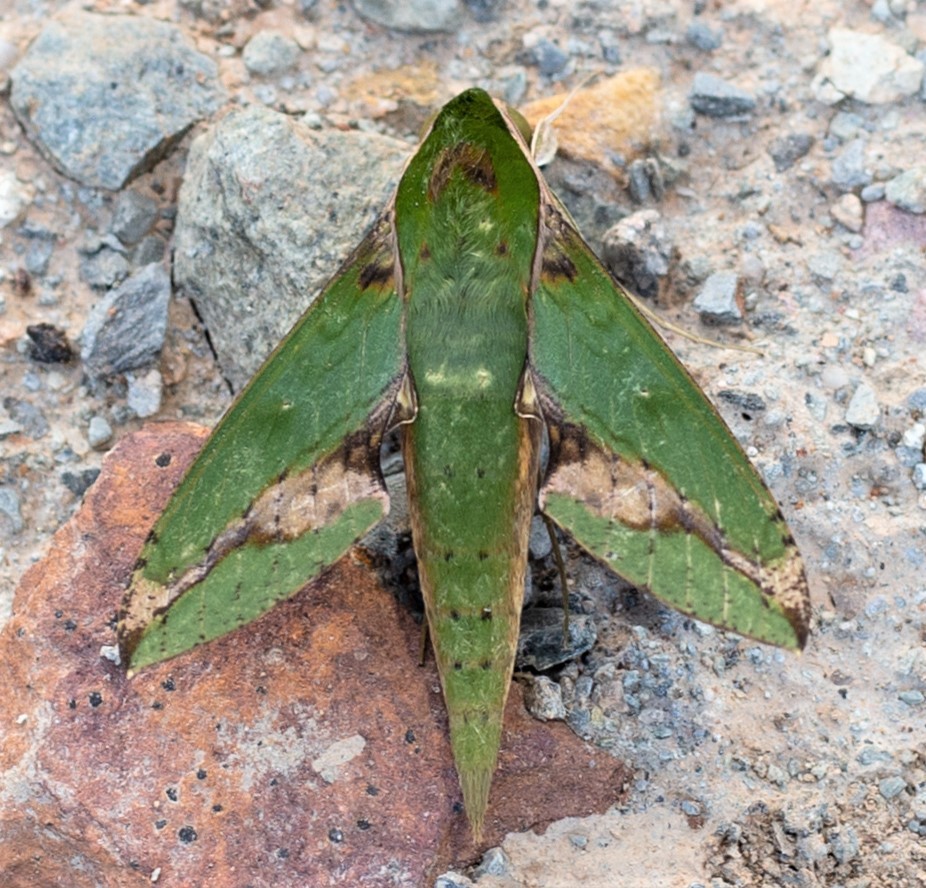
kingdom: Animalia
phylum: Arthropoda
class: Insecta
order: Lepidoptera
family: Sphingidae
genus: Xylophanes
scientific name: Xylophanes chiron
